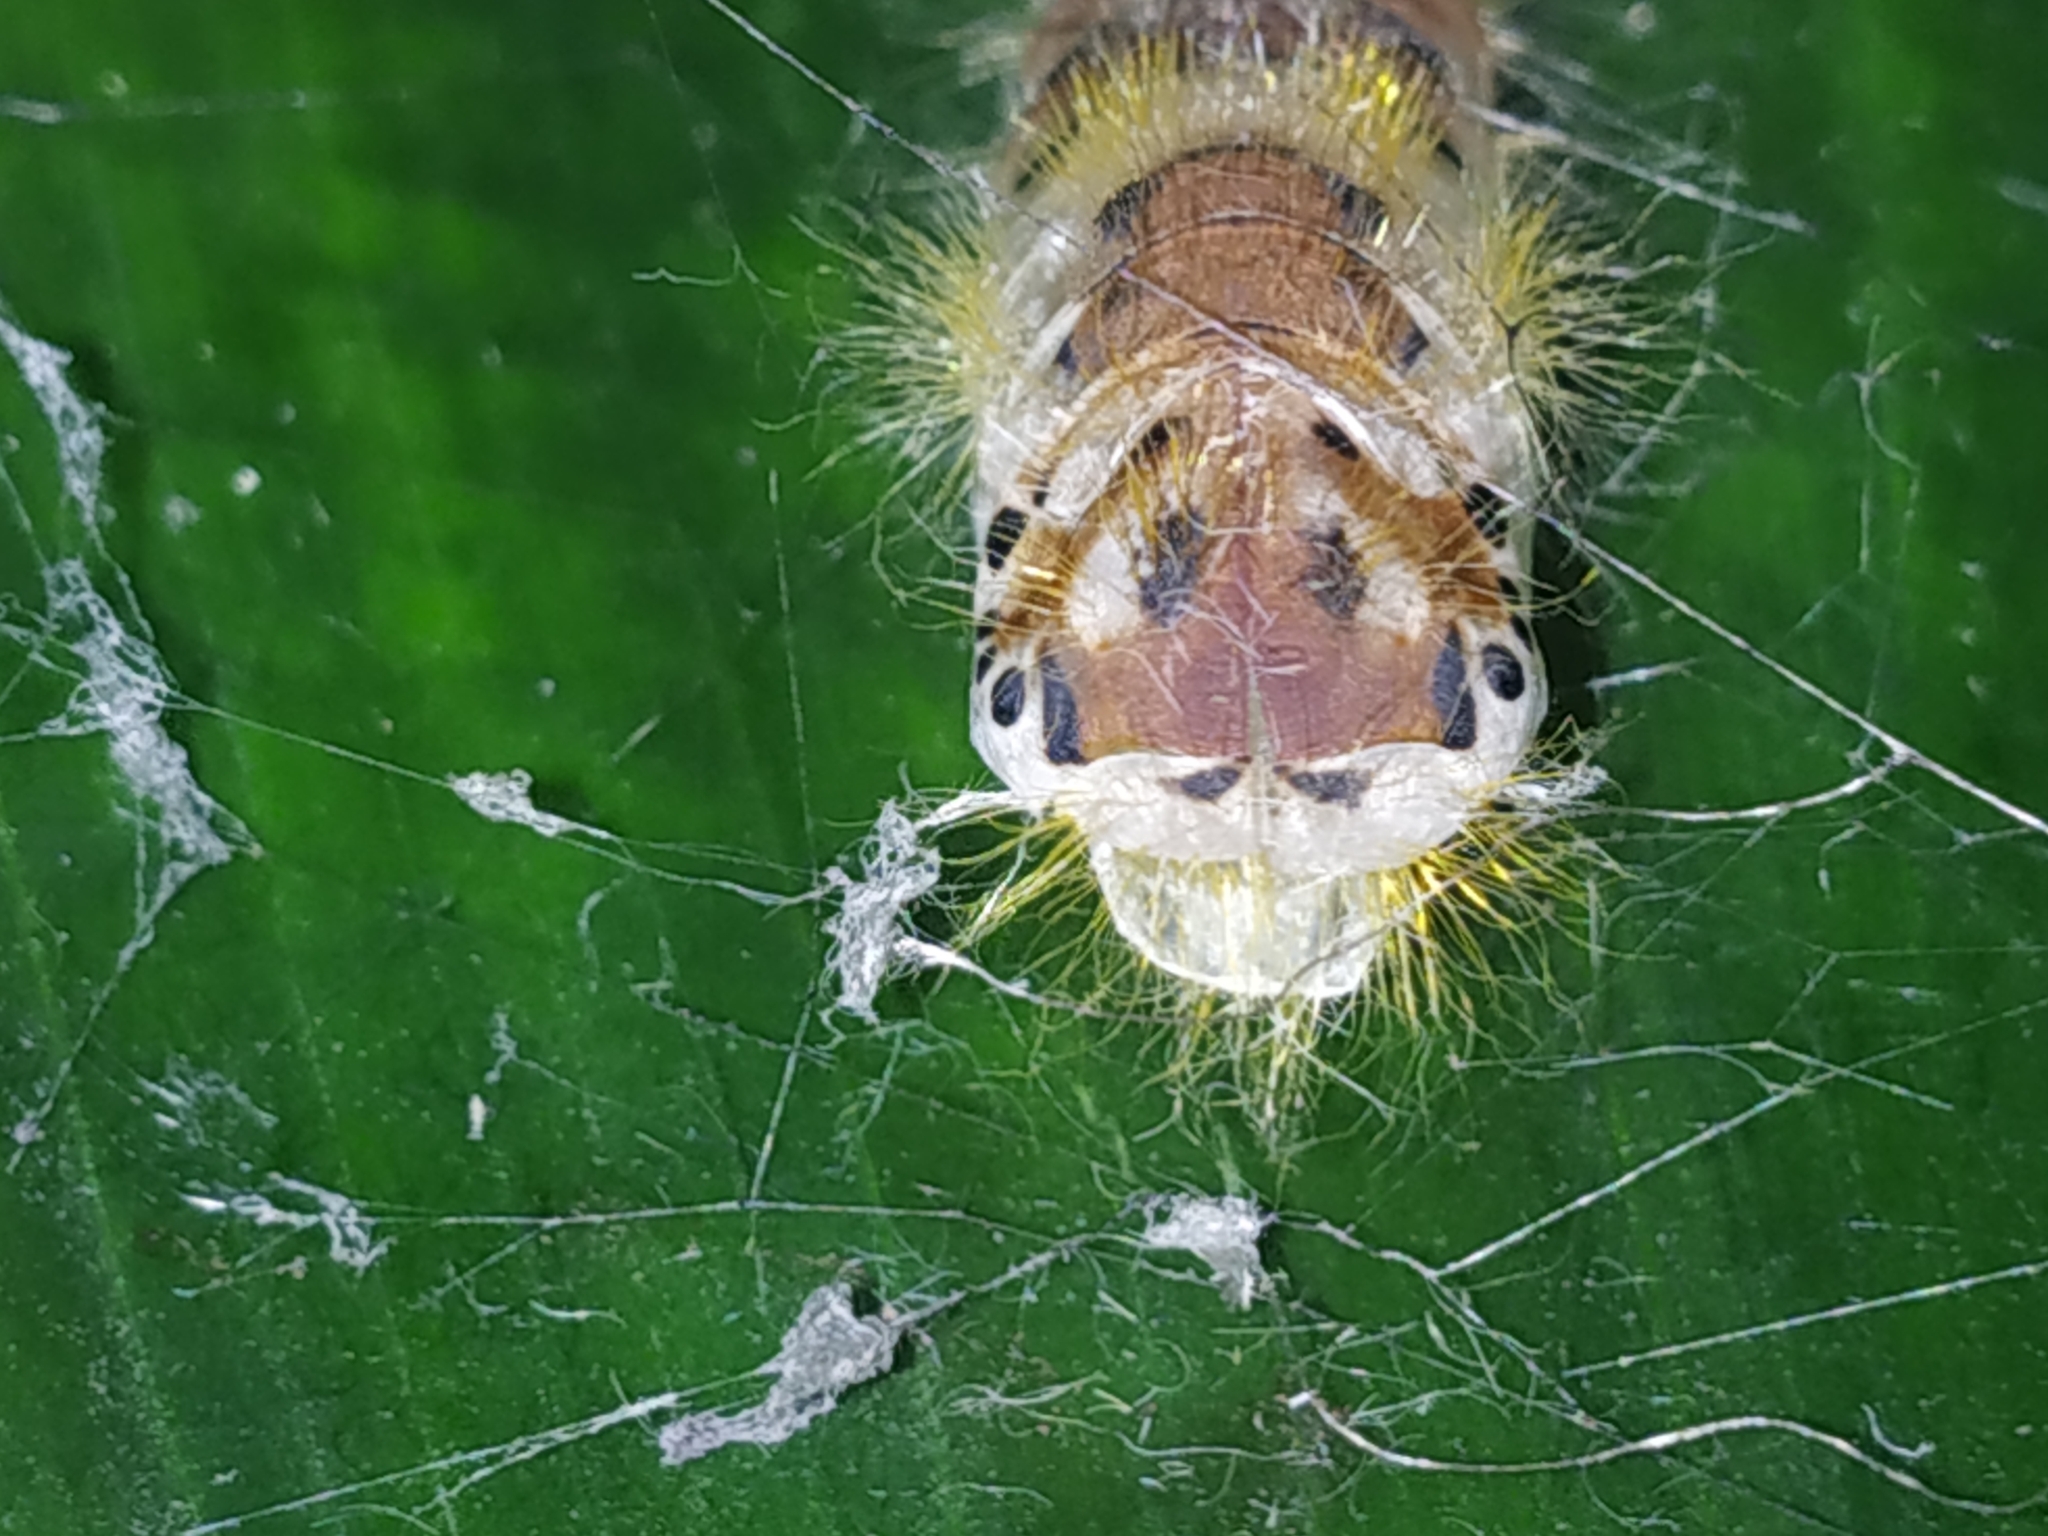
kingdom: Animalia
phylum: Arthropoda
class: Insecta
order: Lepidoptera
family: Erebidae
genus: Perina
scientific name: Perina nuda
